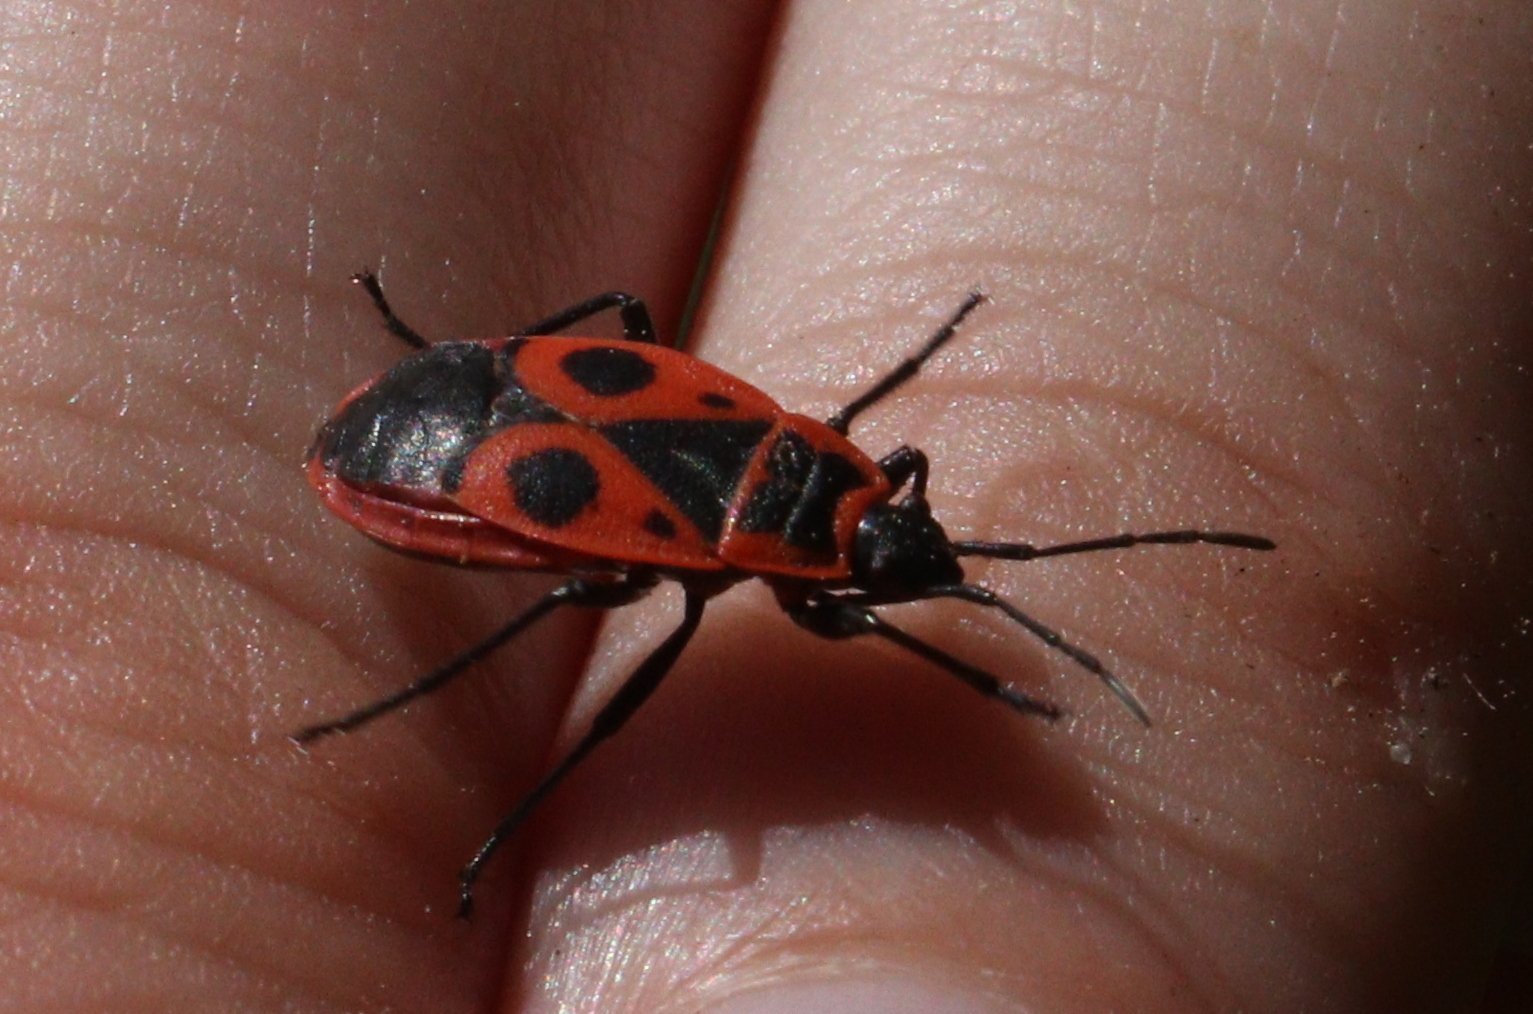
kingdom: Animalia
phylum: Arthropoda
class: Insecta
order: Hemiptera
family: Pyrrhocoridae
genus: Pyrrhocoris
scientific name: Pyrrhocoris apterus
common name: Firebug
